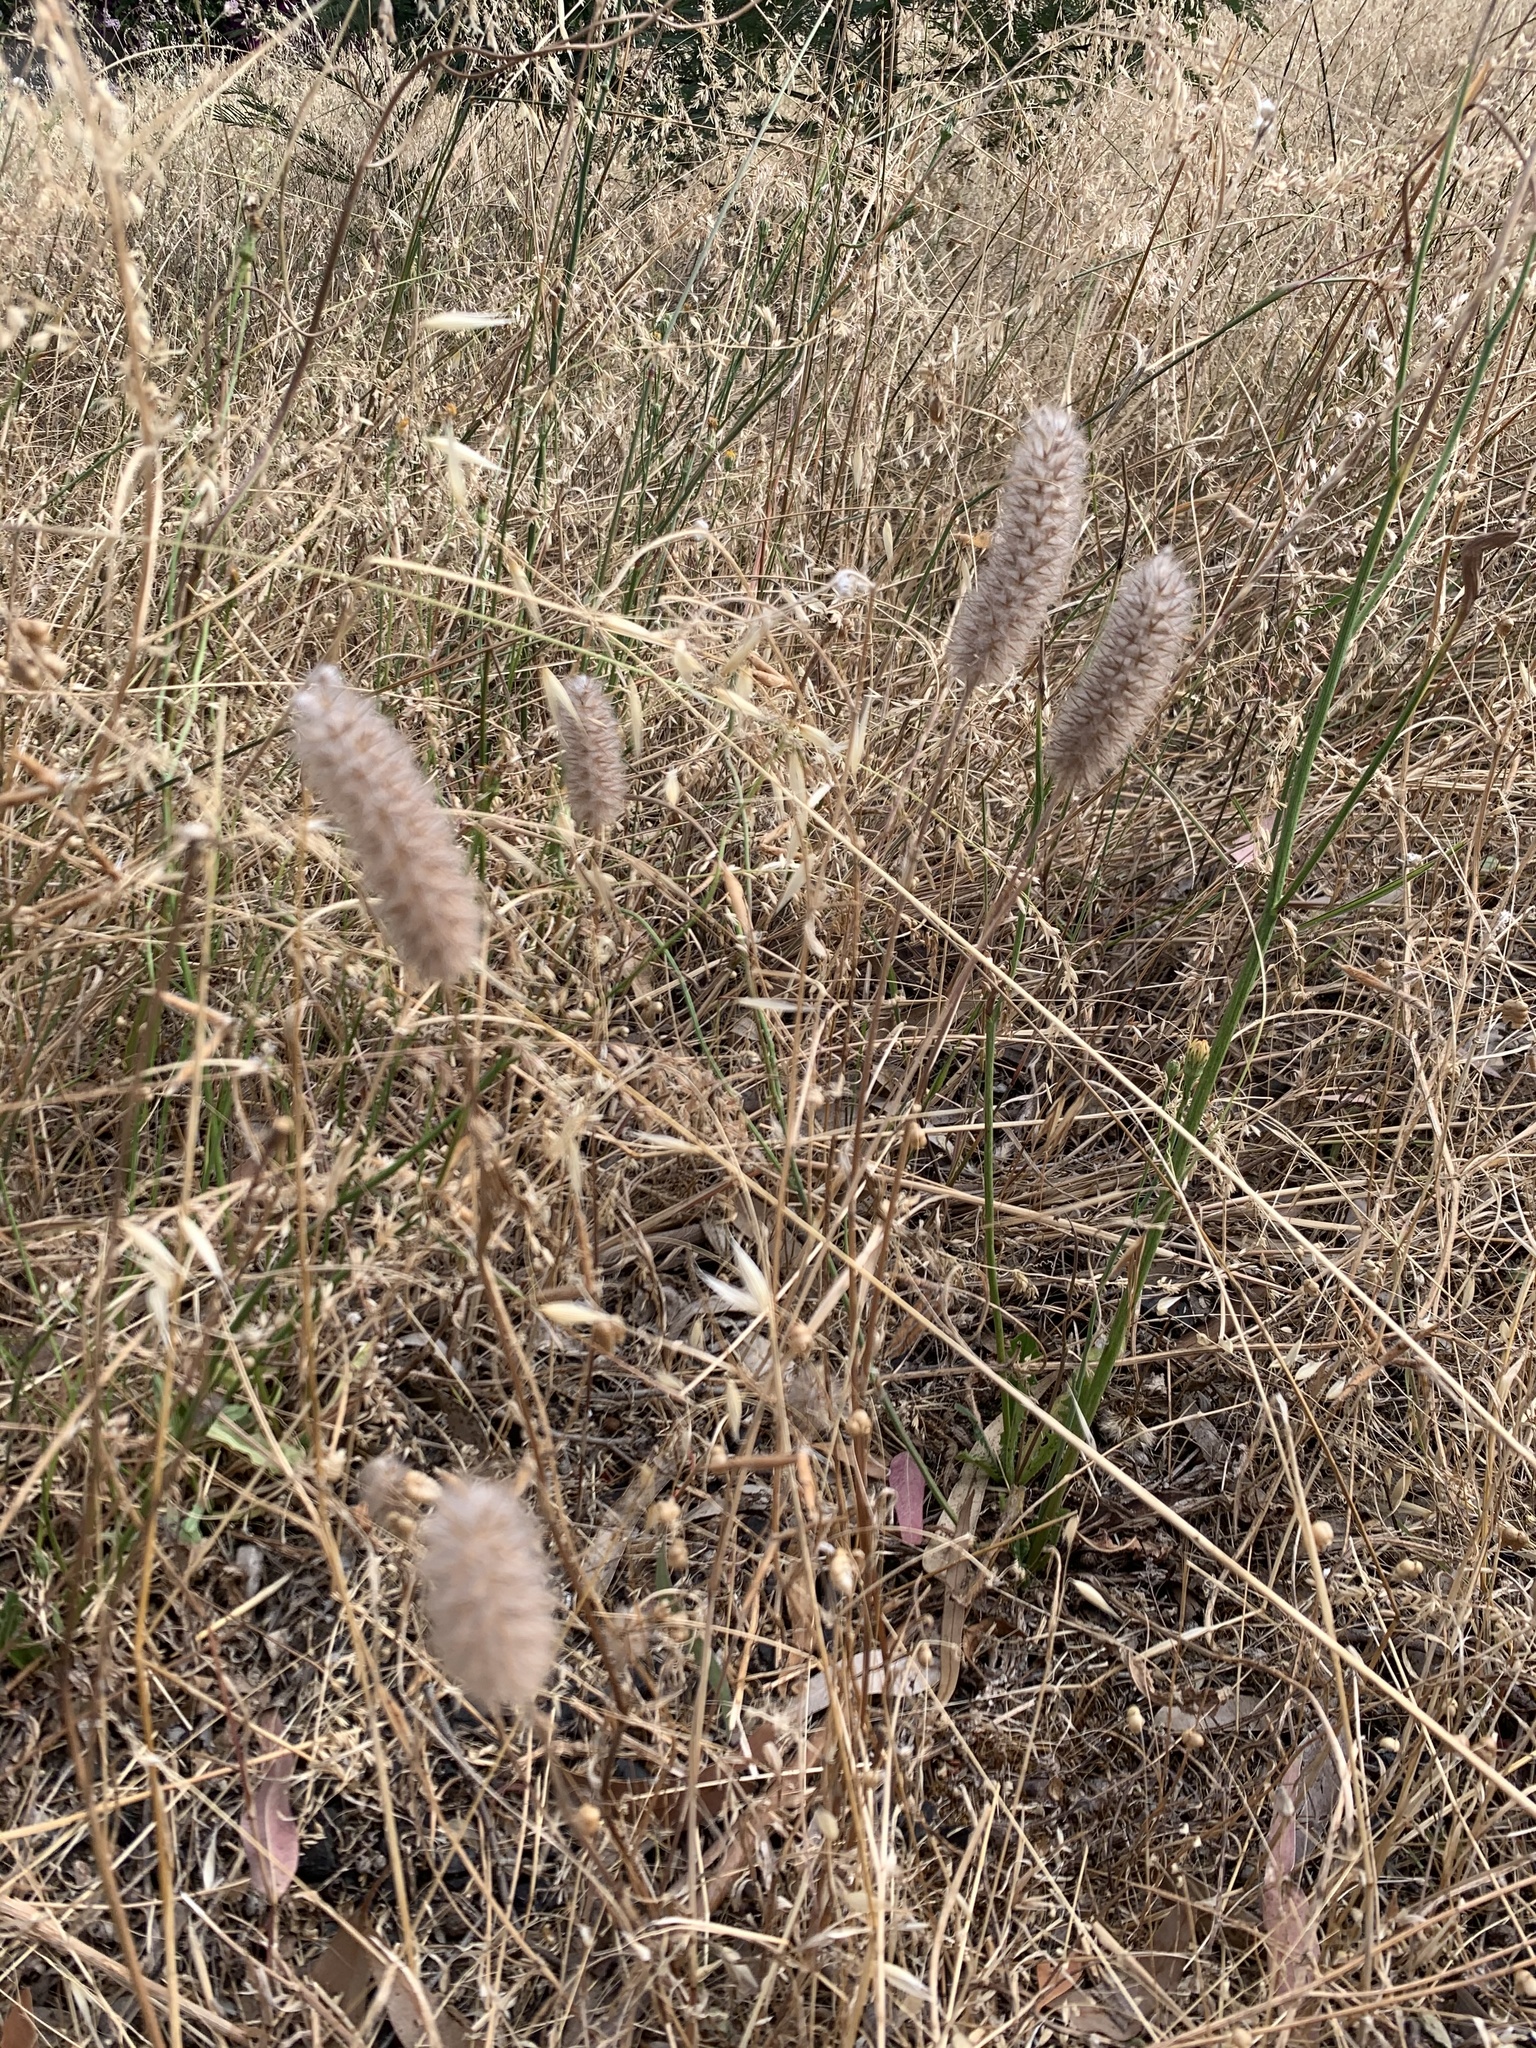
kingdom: Plantae
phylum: Tracheophyta
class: Magnoliopsida
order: Fabales
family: Fabaceae
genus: Trifolium
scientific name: Trifolium angustifolium
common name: Narrow clover
